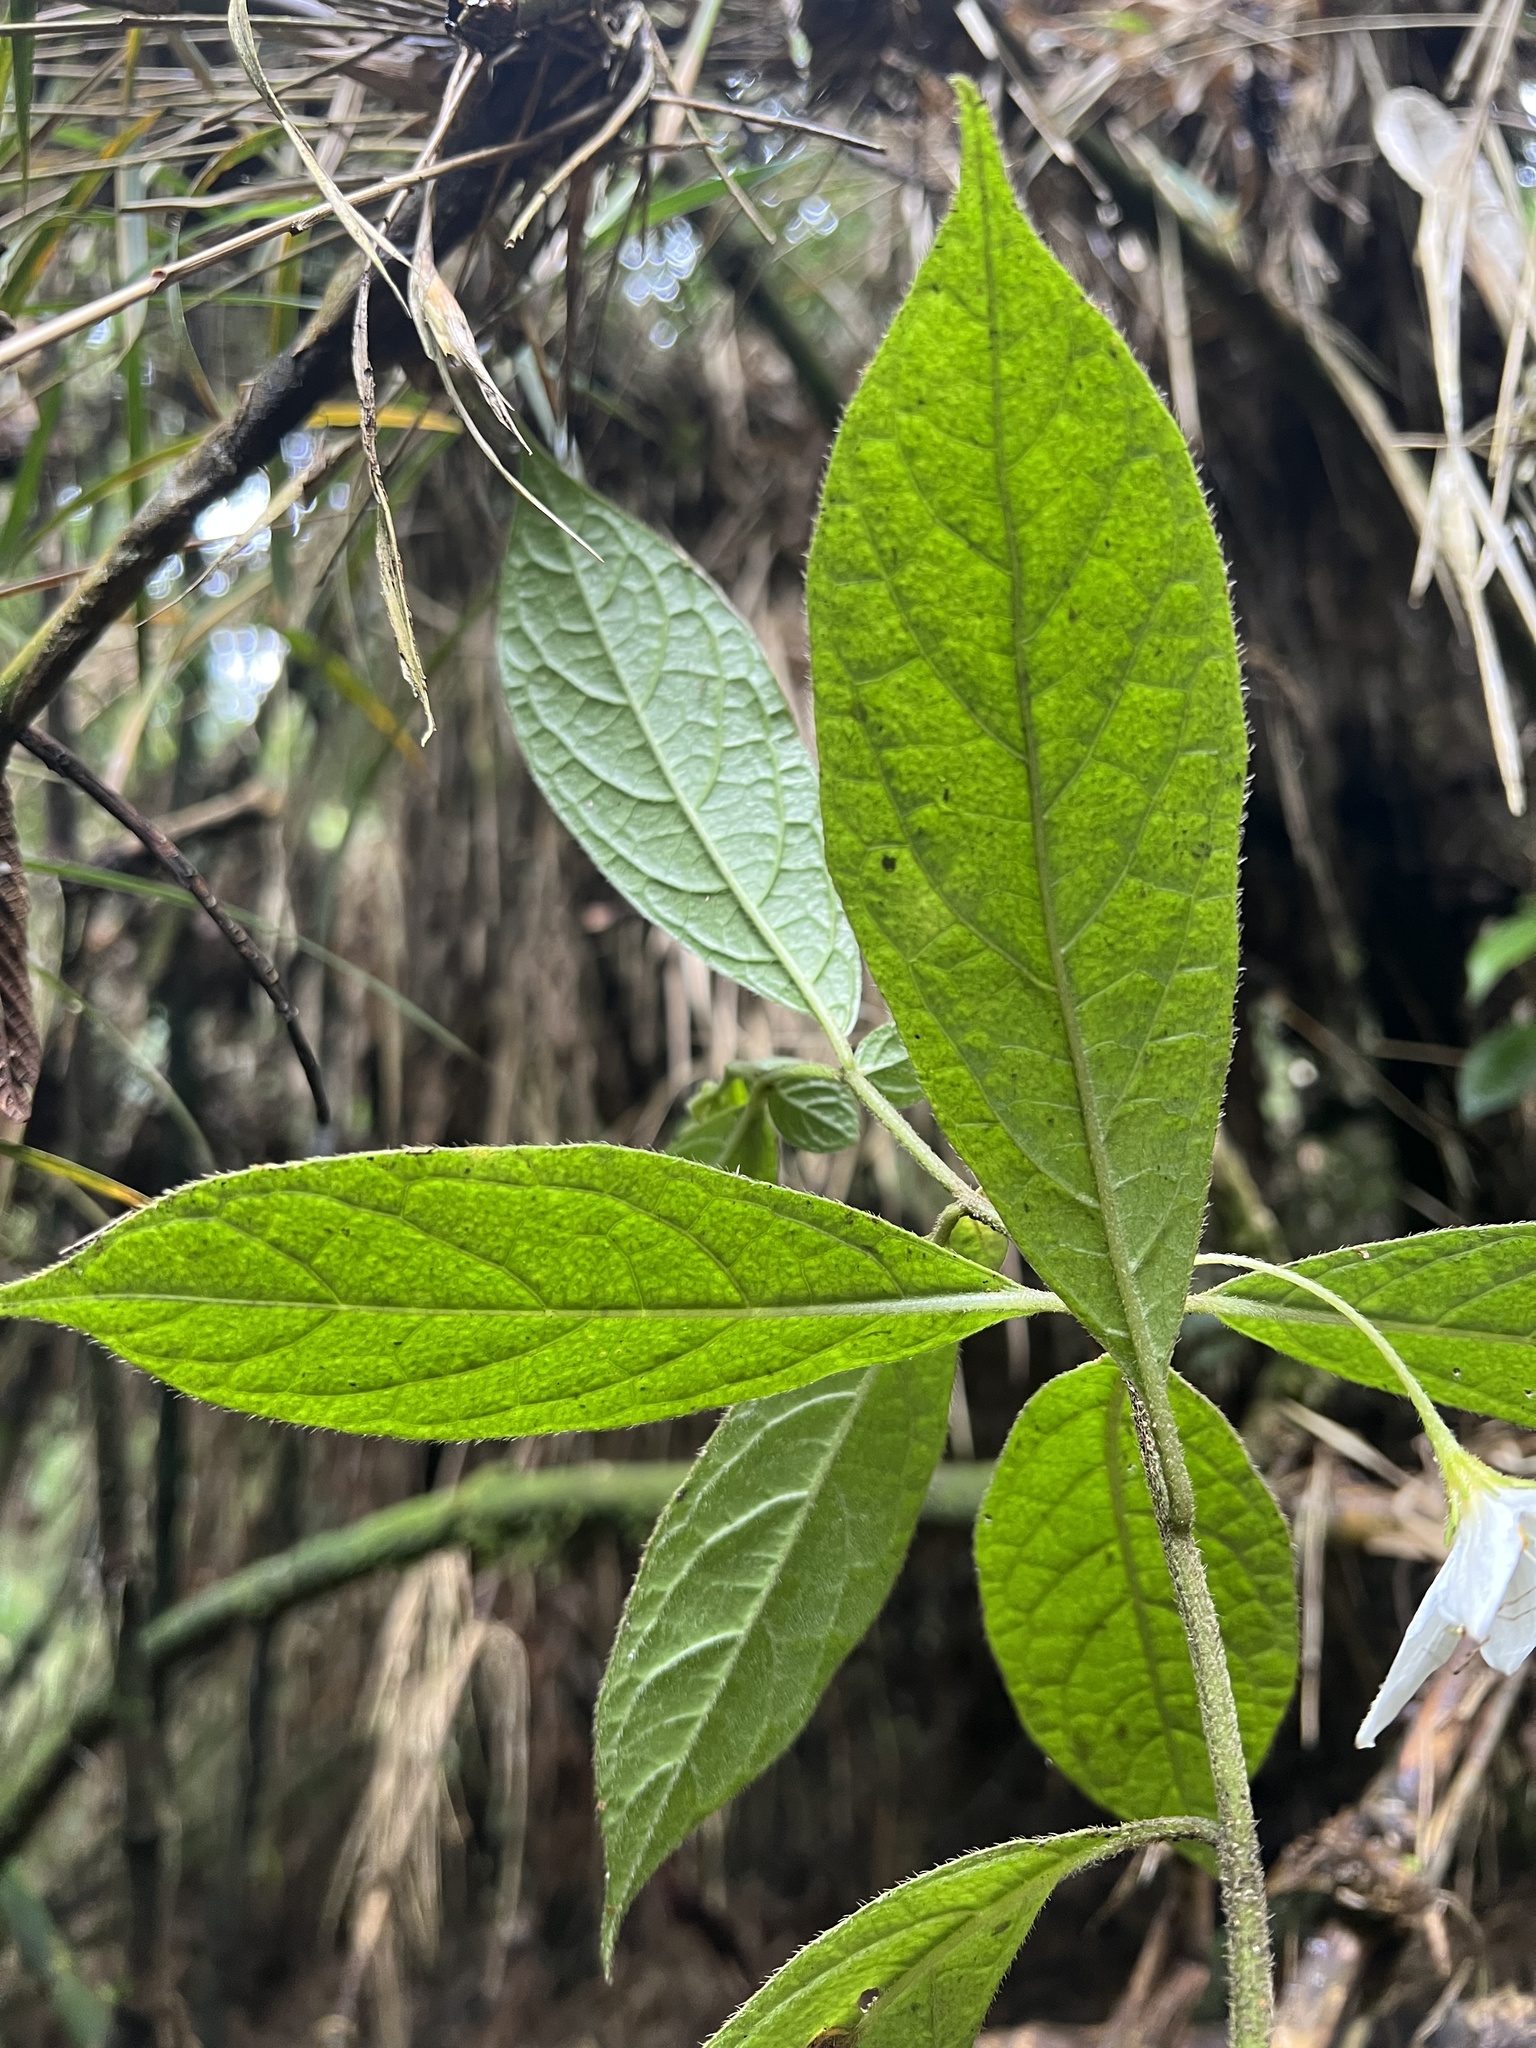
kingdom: Plantae
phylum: Tracheophyta
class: Magnoliopsida
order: Solanales
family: Solanaceae
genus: Lycianthes
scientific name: Lycianthes acutifolia
